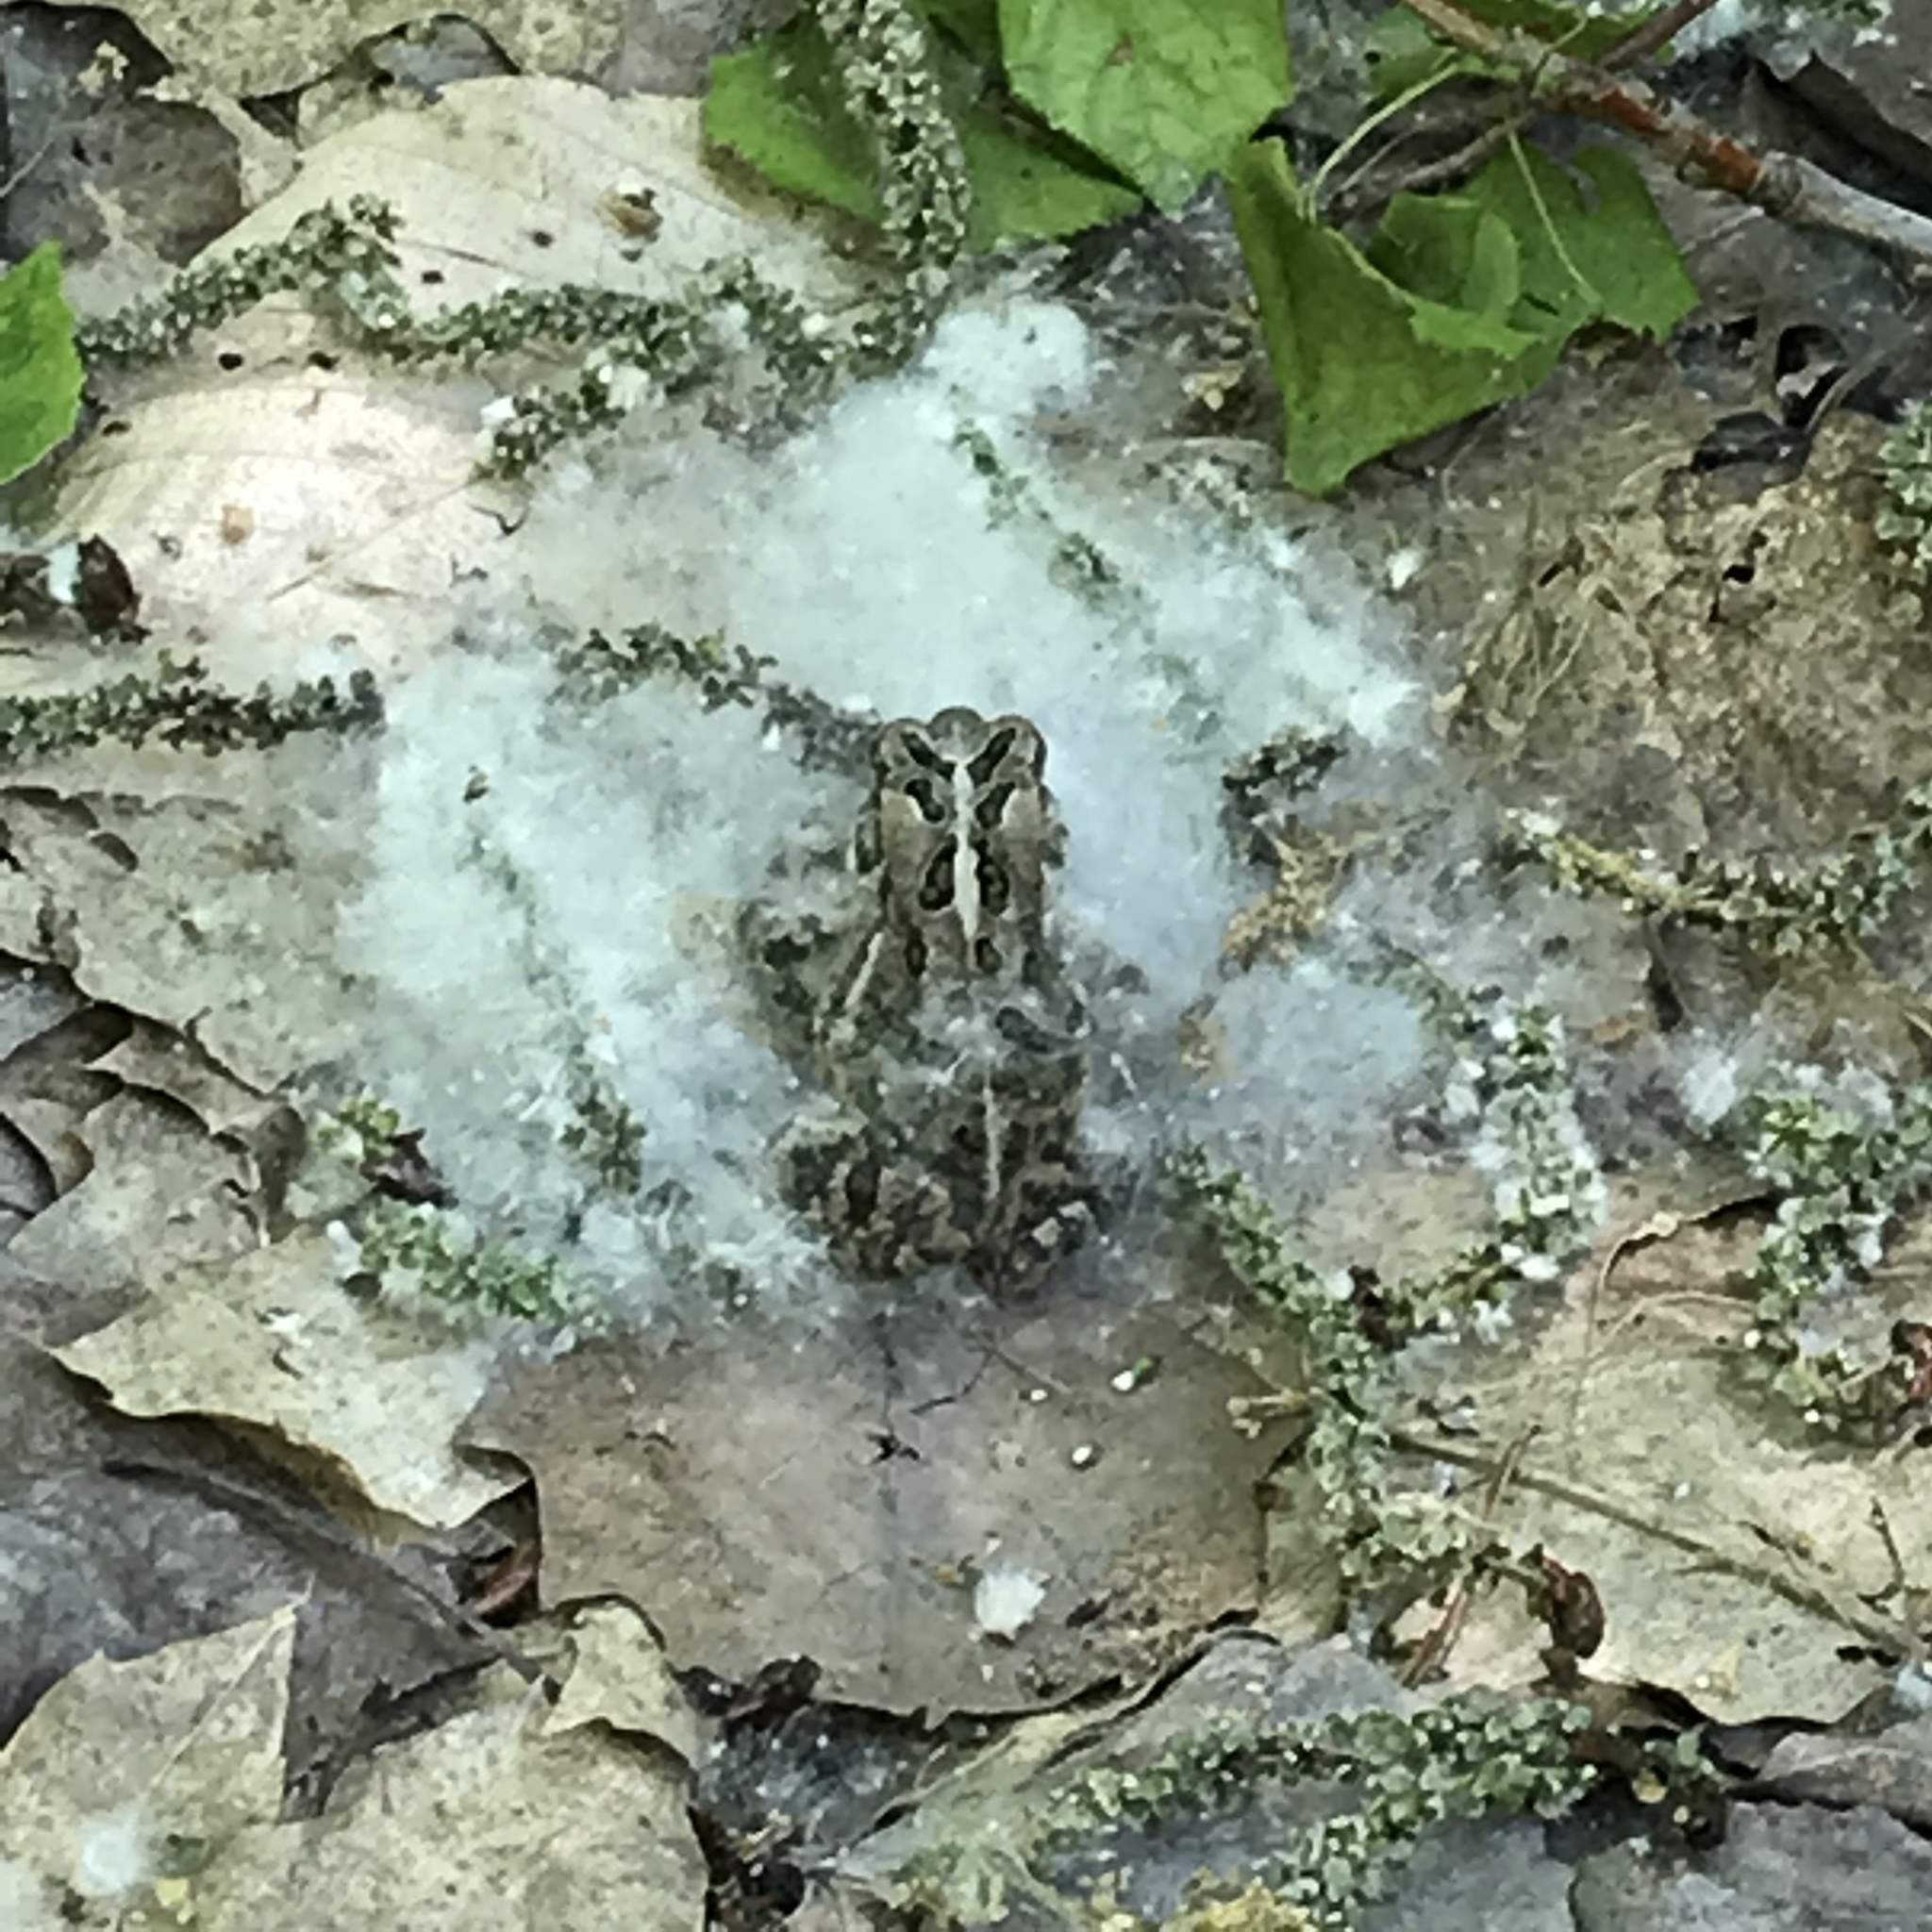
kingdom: Animalia
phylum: Chordata
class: Amphibia
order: Anura
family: Bufonidae
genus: Anaxyrus
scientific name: Anaxyrus americanus
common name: American toad
